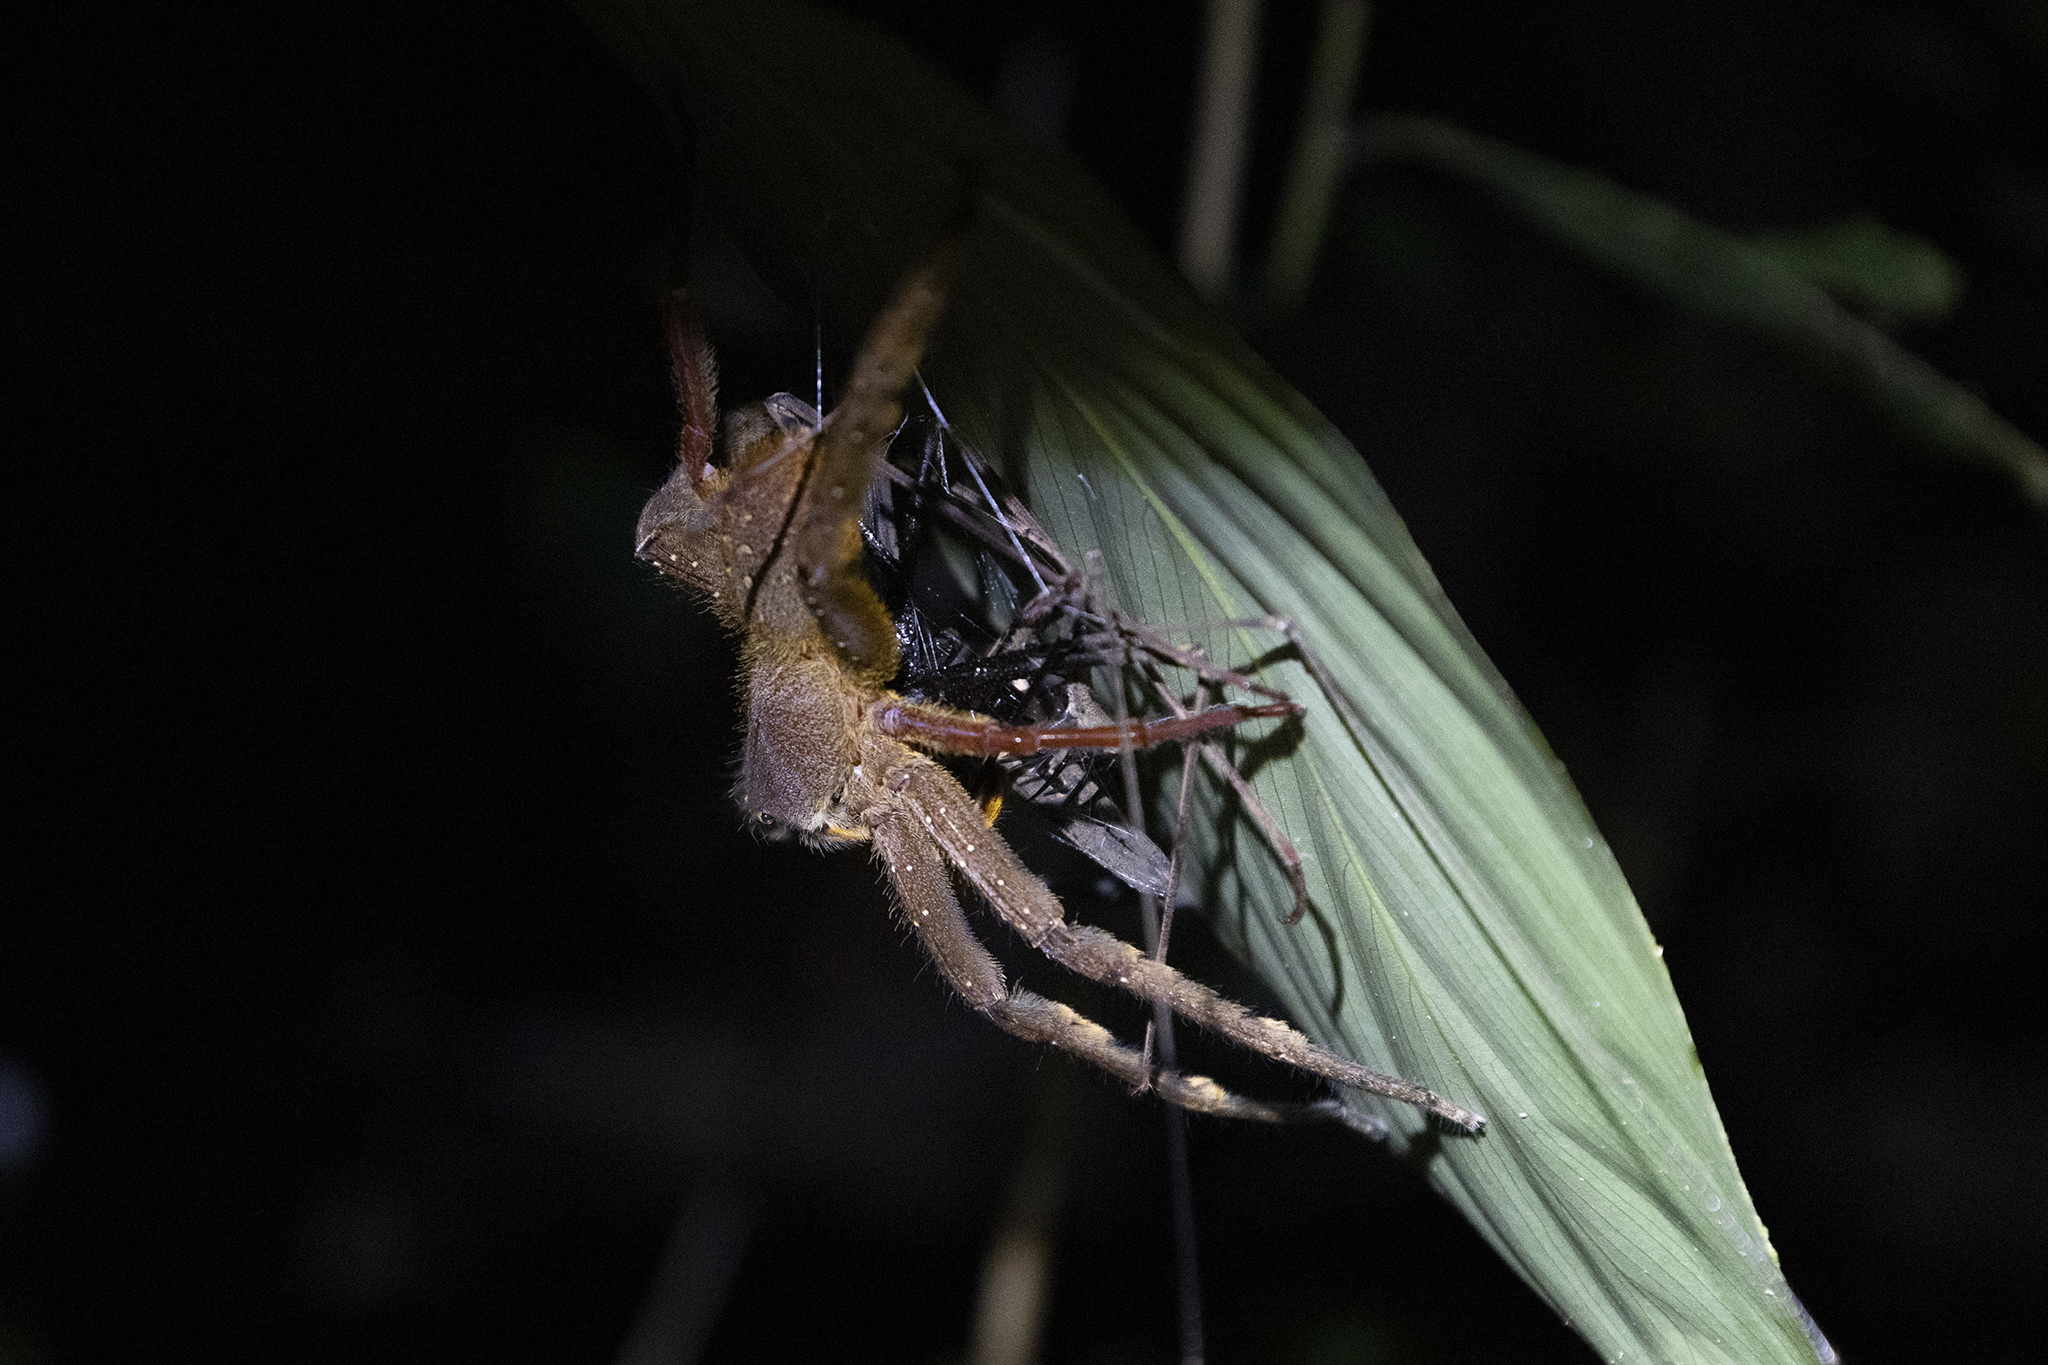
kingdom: Animalia
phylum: Arthropoda
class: Arachnida
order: Araneae
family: Ctenidae
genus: Phoneutria
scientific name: Phoneutria fera
